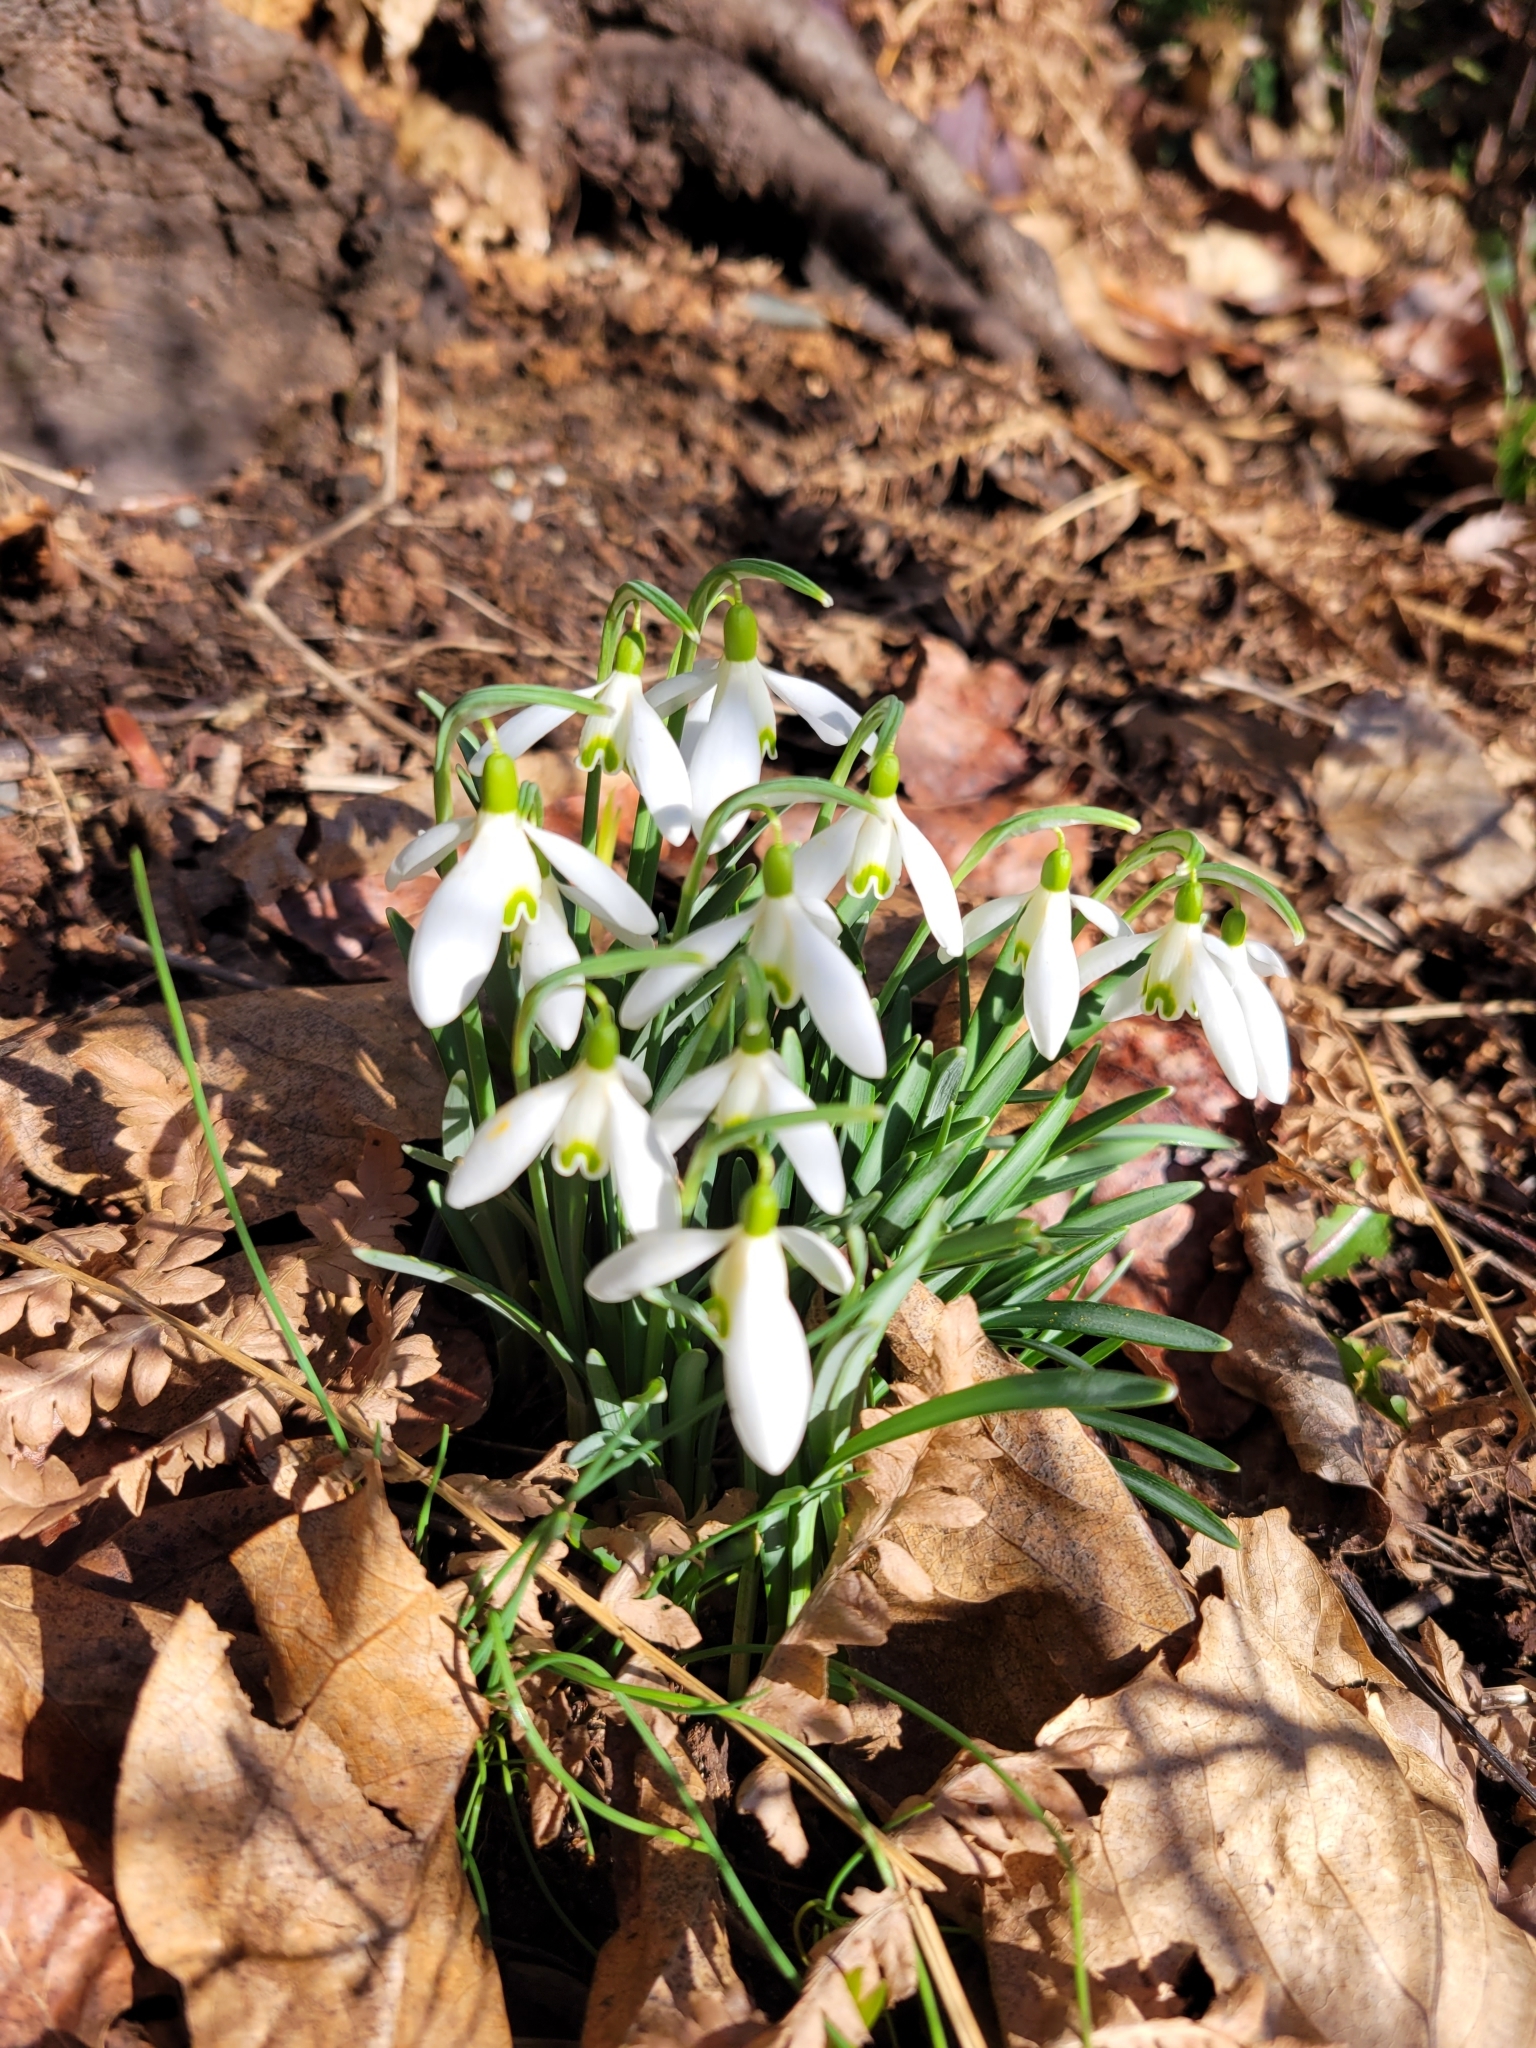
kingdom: Plantae
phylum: Tracheophyta
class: Liliopsida
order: Asparagales
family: Amaryllidaceae
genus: Galanthus
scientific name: Galanthus nivalis
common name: Snowdrop
